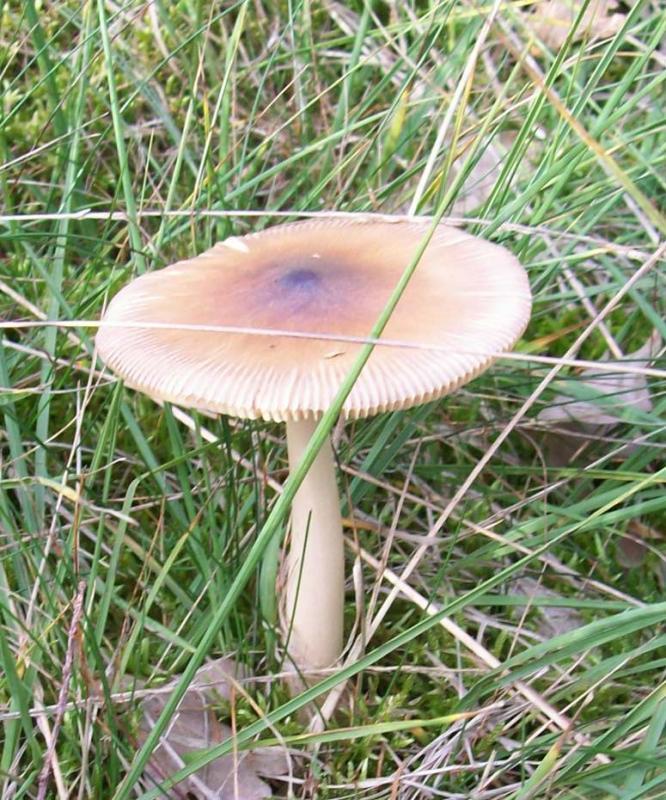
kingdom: Fungi
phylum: Basidiomycota
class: Agaricomycetes
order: Agaricales
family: Amanitaceae
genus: Amanita
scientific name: Amanita fulva
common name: Tawny grisette
